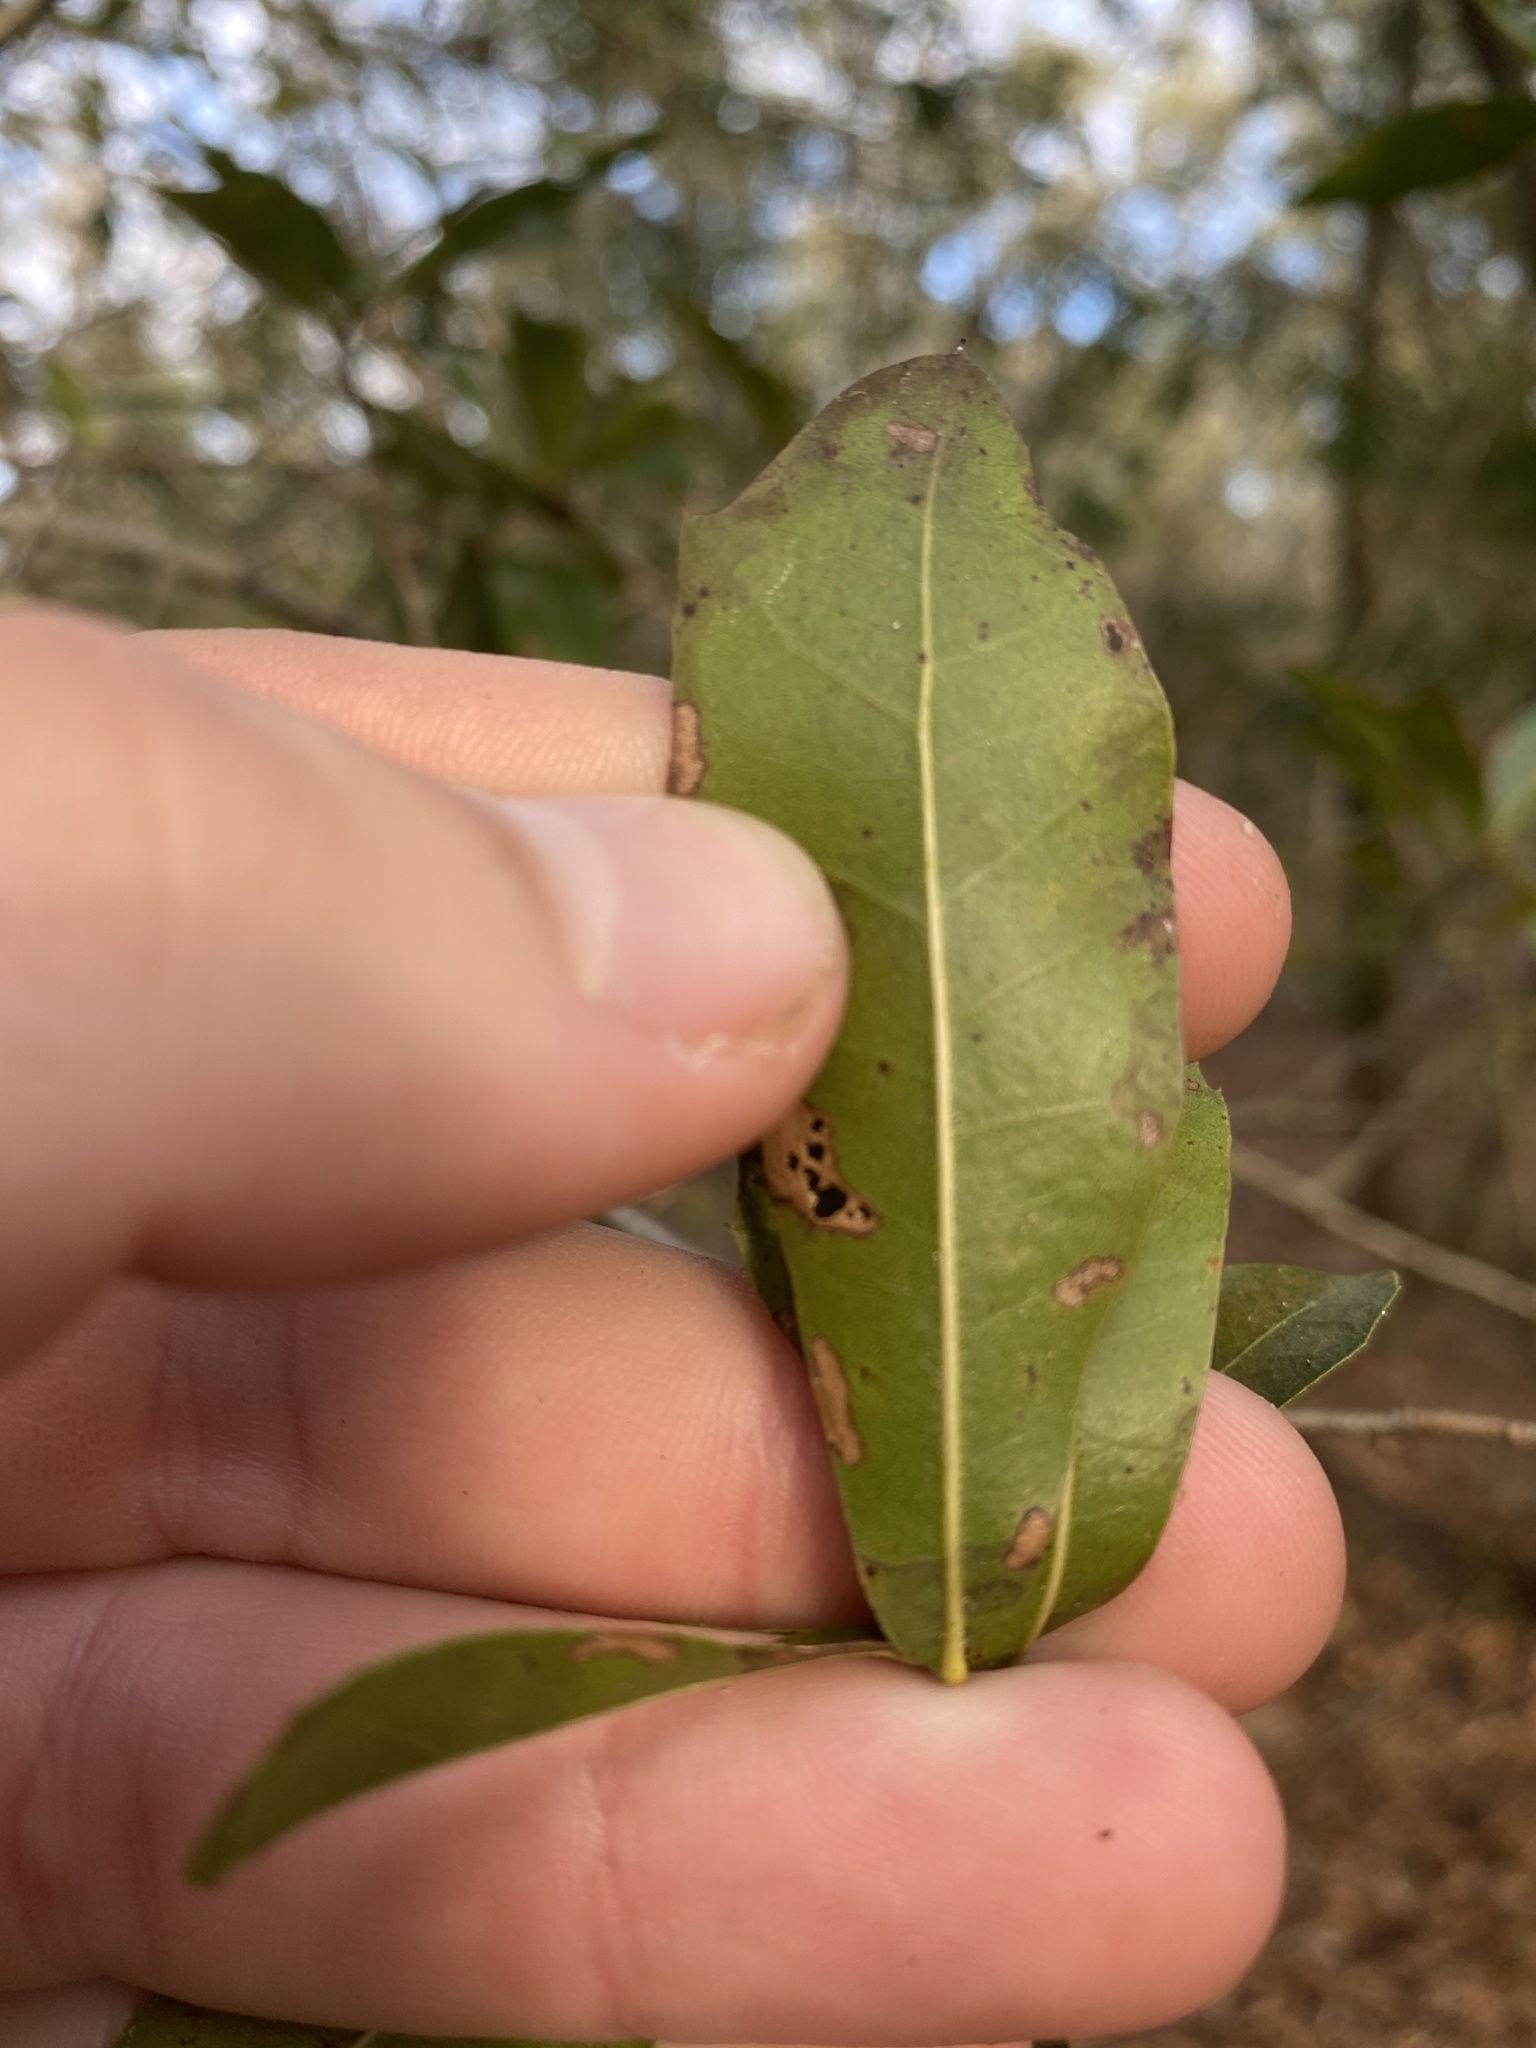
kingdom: Plantae
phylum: Tracheophyta
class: Magnoliopsida
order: Fagales
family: Fagaceae
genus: Quercus
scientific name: Quercus hemisphaerica
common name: Darlington oak
